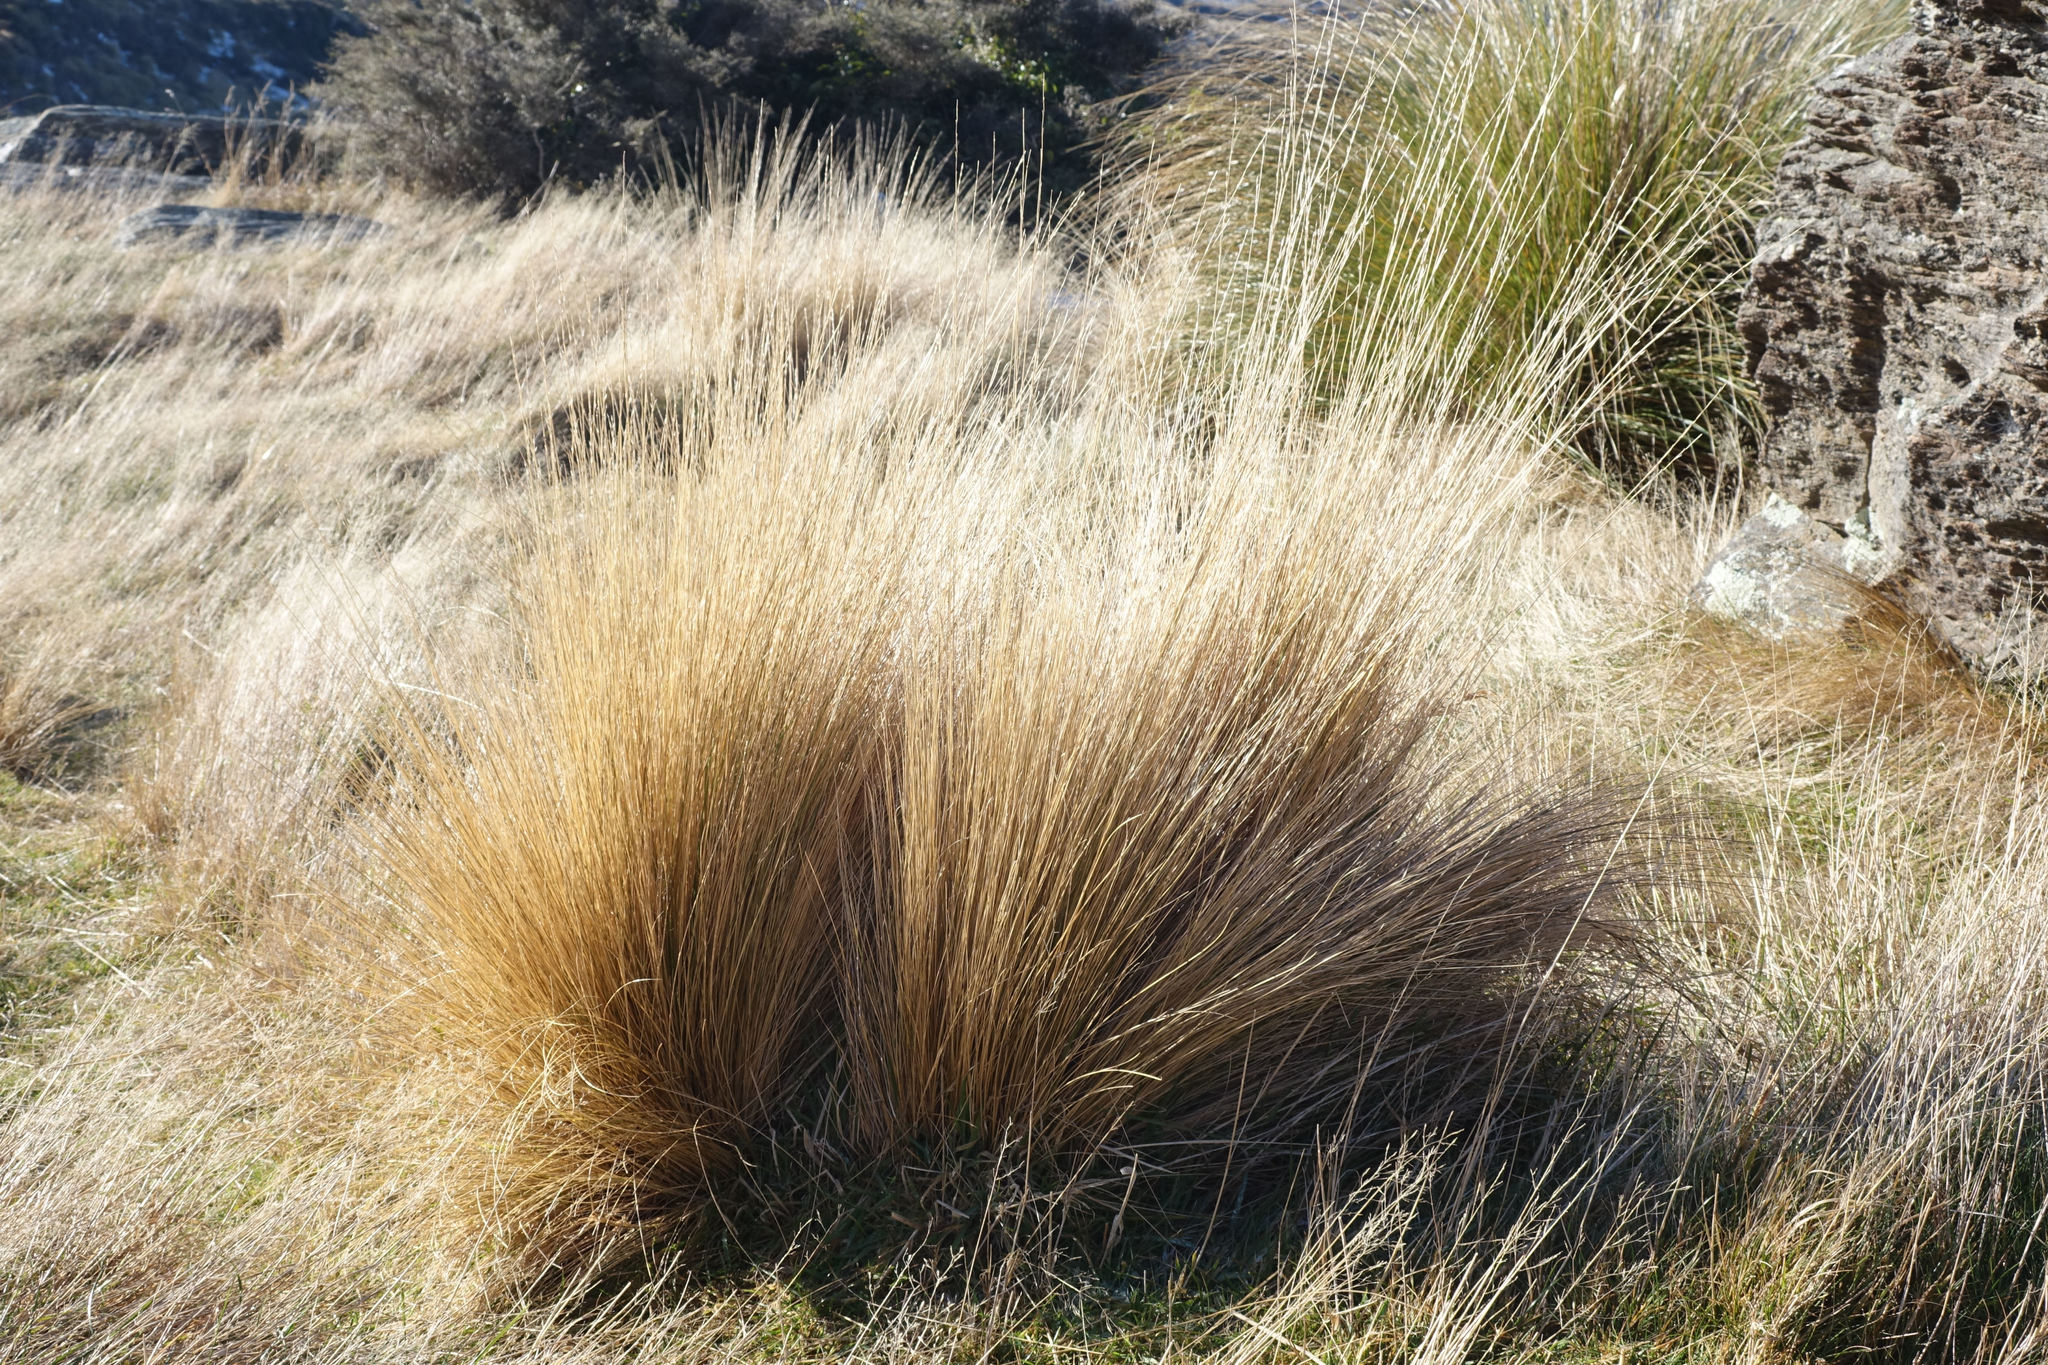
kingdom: Plantae
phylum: Tracheophyta
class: Liliopsida
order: Poales
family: Poaceae
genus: Festuca
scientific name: Festuca novae-zelandiae
